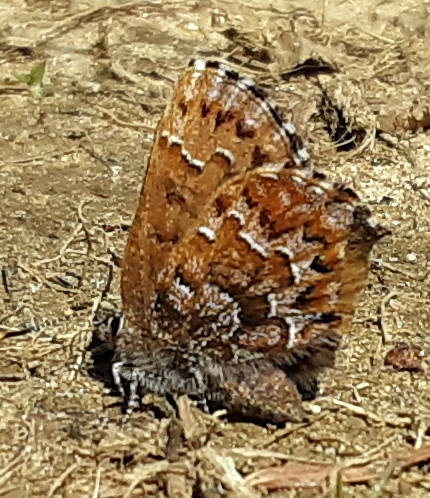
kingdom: Animalia
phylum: Arthropoda
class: Insecta
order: Lepidoptera
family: Lycaenidae
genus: Incisalia
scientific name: Incisalia niphon
